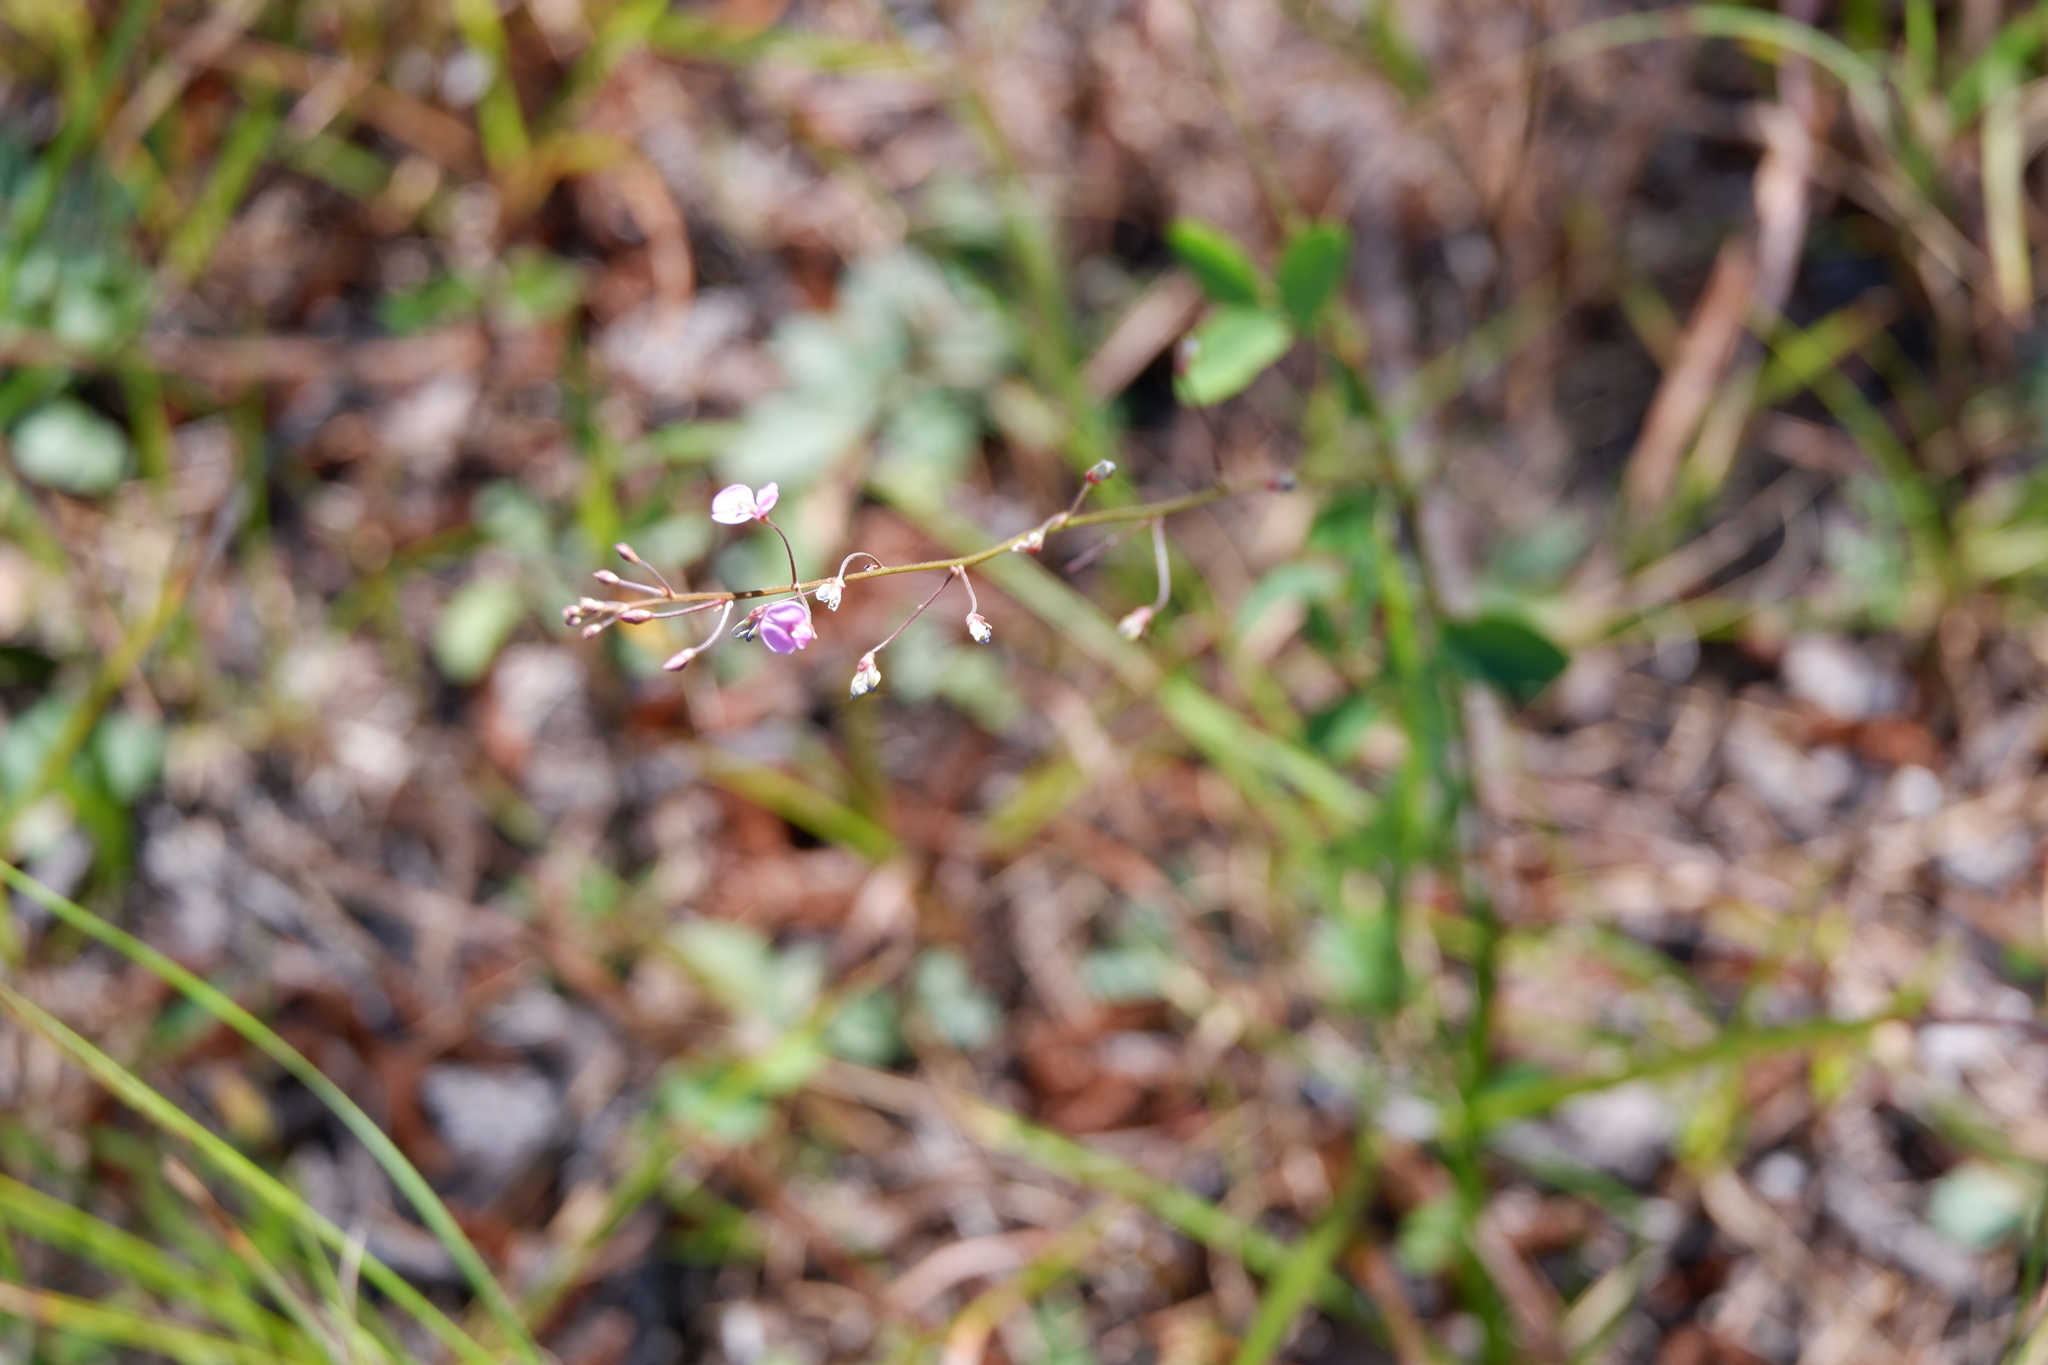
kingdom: Plantae
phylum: Tracheophyta
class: Magnoliopsida
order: Fabales
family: Fabaceae
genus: Desmodium
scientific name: Desmodium marilandicum
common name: Maryland tick-trefoil
